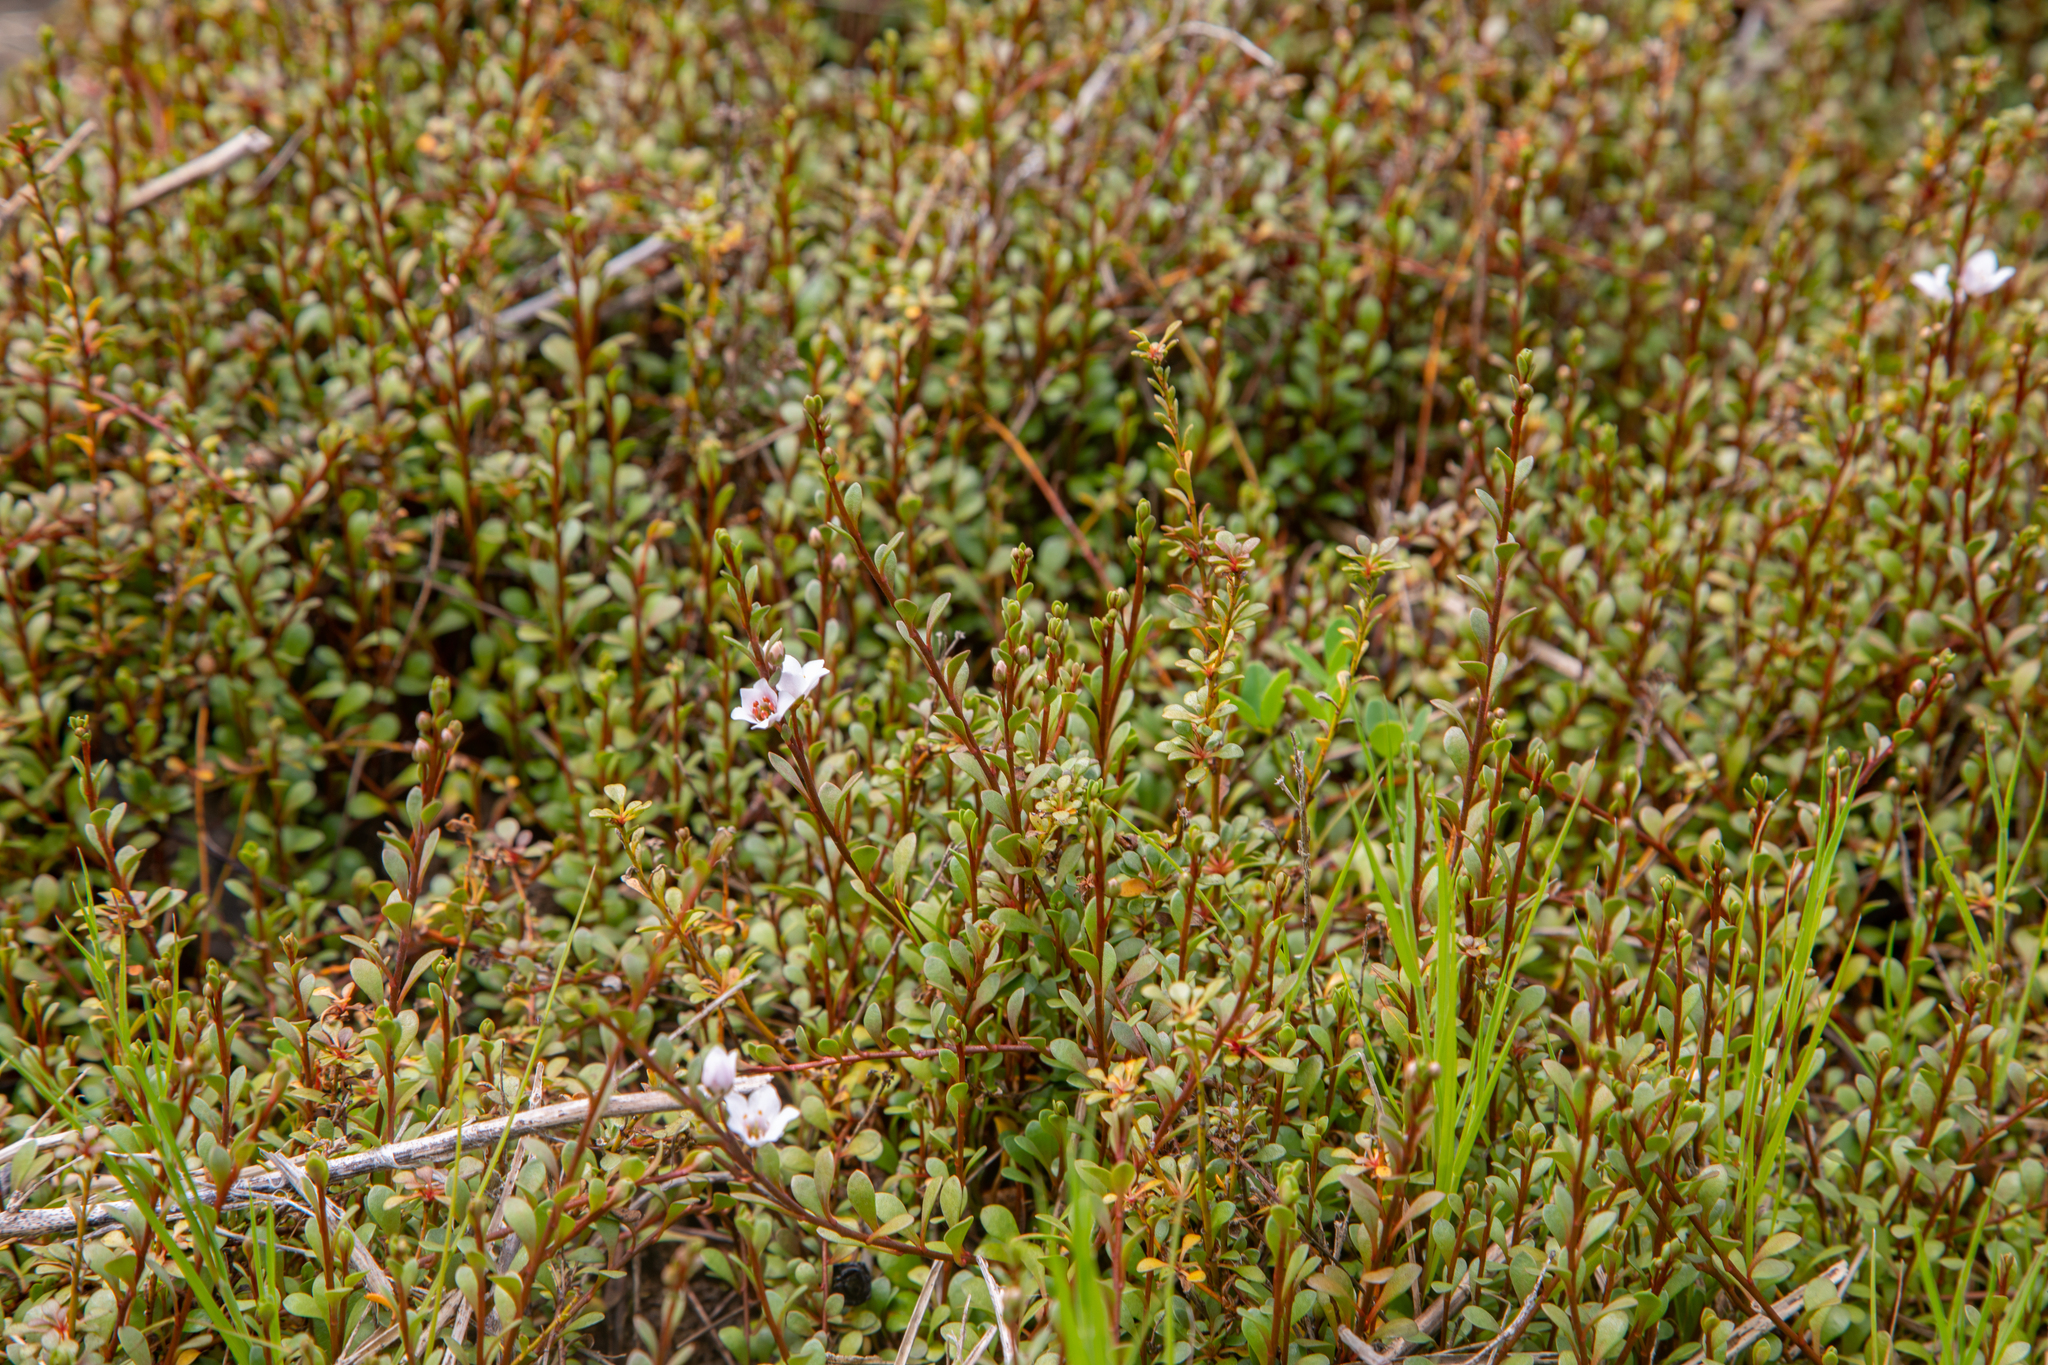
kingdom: Plantae
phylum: Tracheophyta
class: Magnoliopsida
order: Ericales
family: Primulaceae
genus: Samolus
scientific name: Samolus repens
